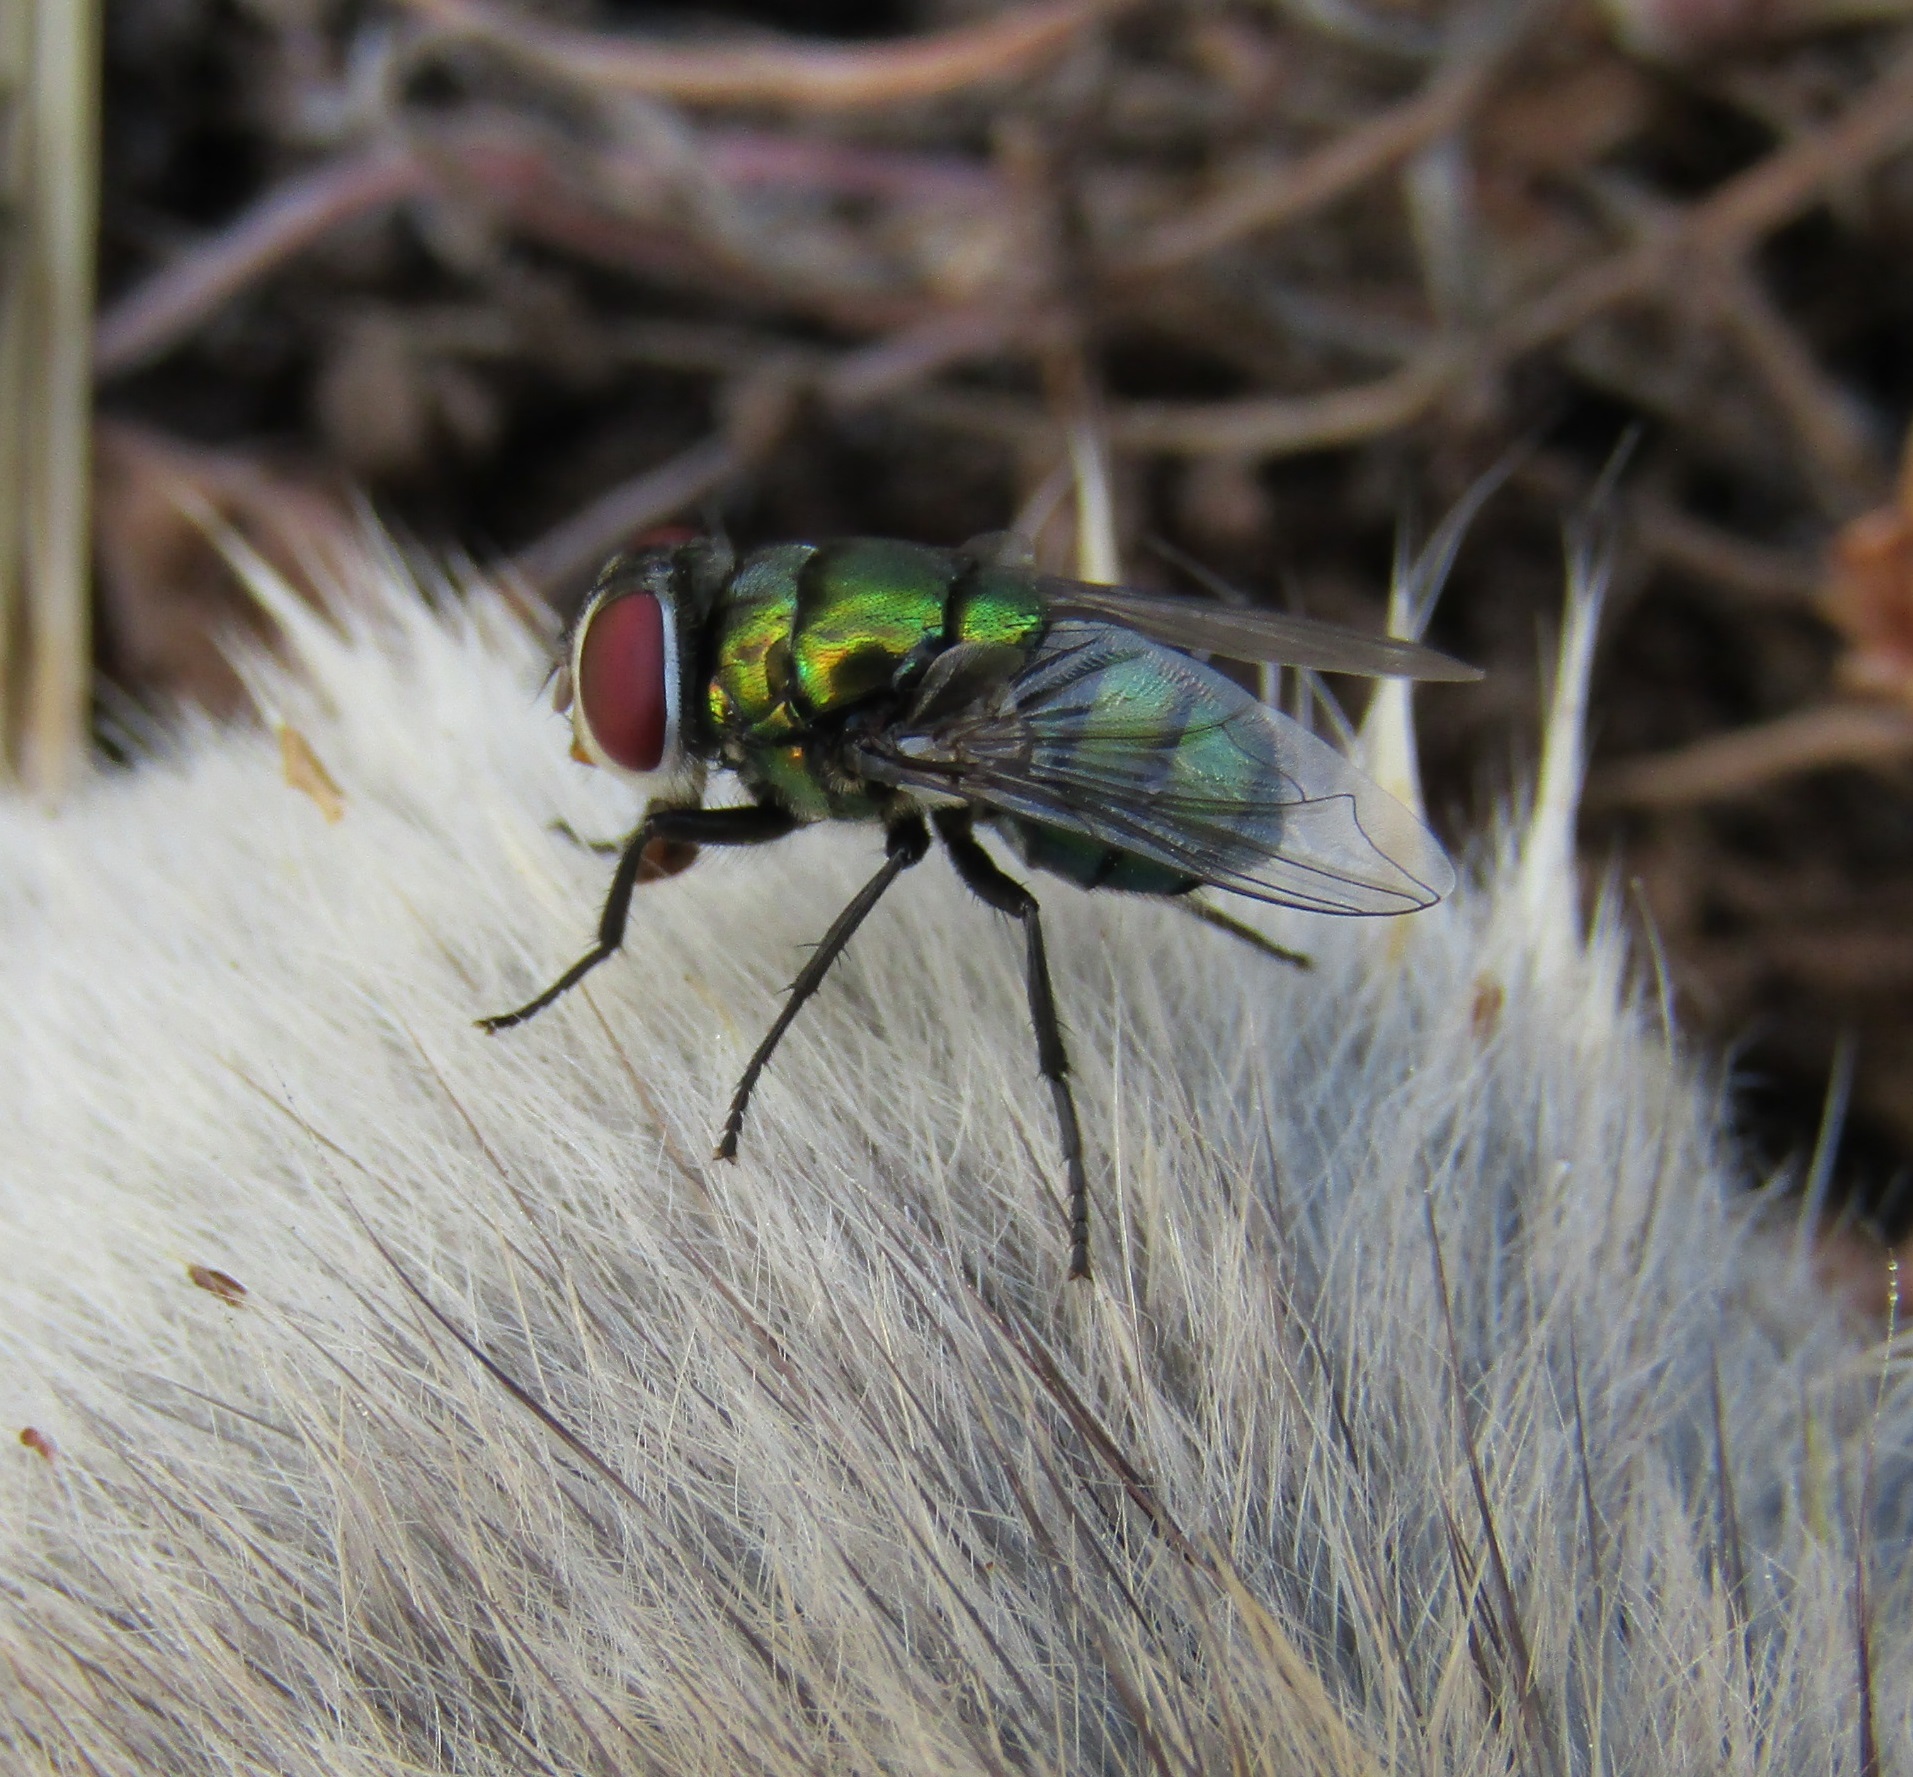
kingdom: Animalia
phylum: Arthropoda
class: Insecta
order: Diptera
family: Calliphoridae
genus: Chrysomya
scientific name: Chrysomya rufifacies
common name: Blow fly
